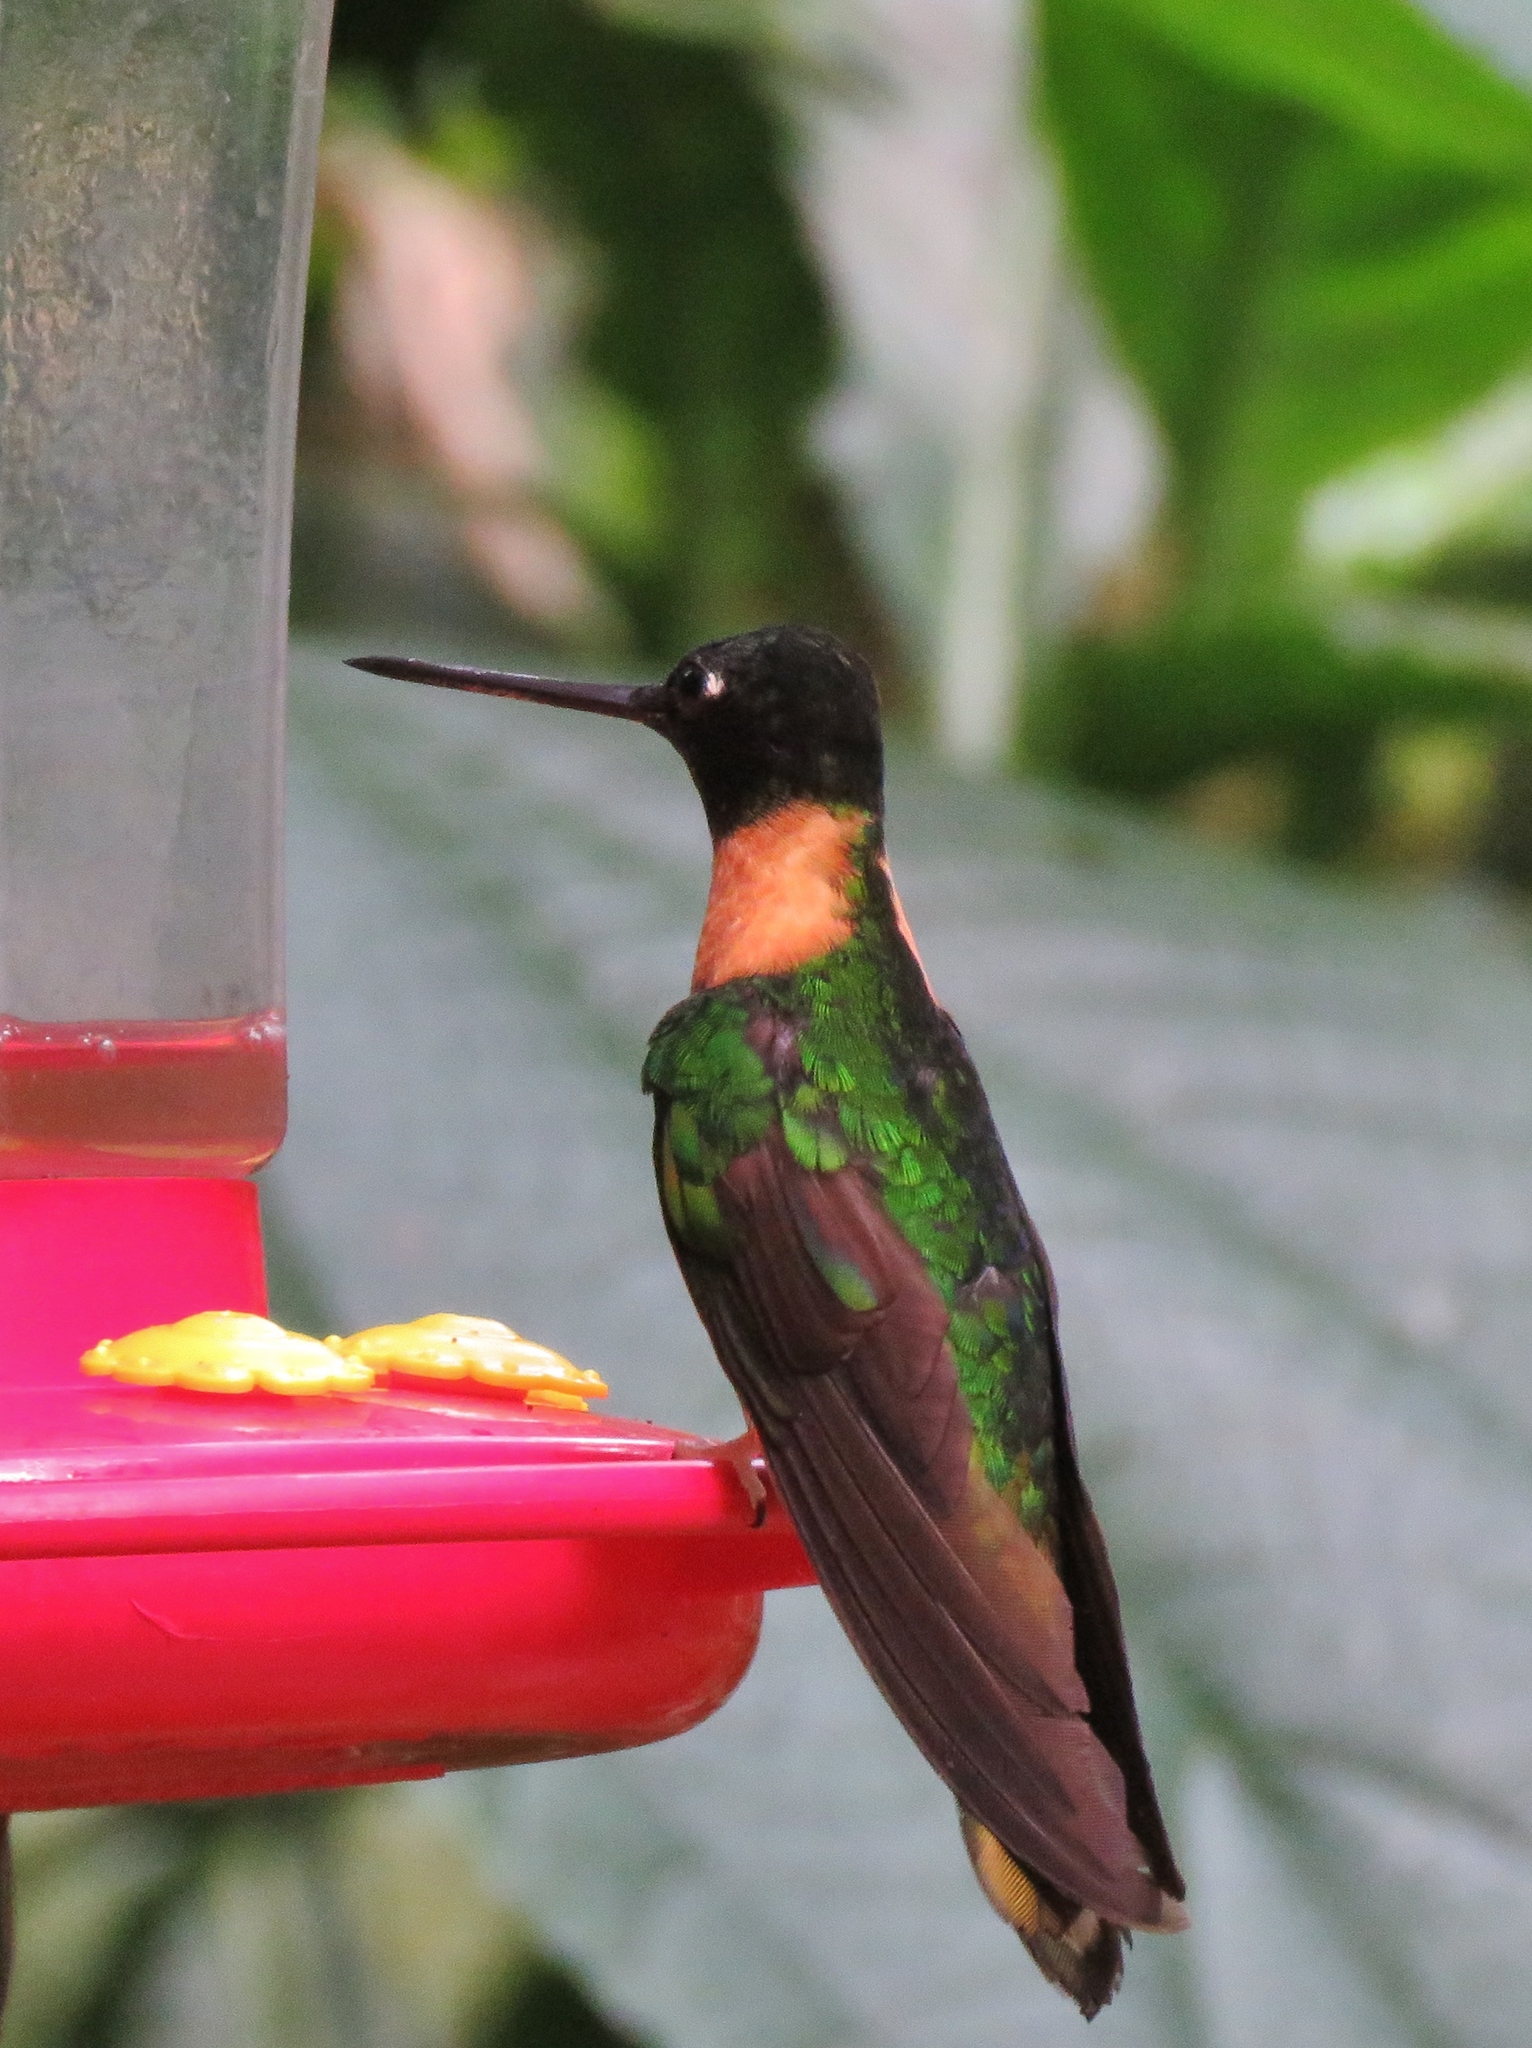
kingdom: Animalia
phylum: Chordata
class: Aves
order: Apodiformes
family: Trochilidae
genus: Coeligena
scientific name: Coeligena torquata
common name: Collared inca
